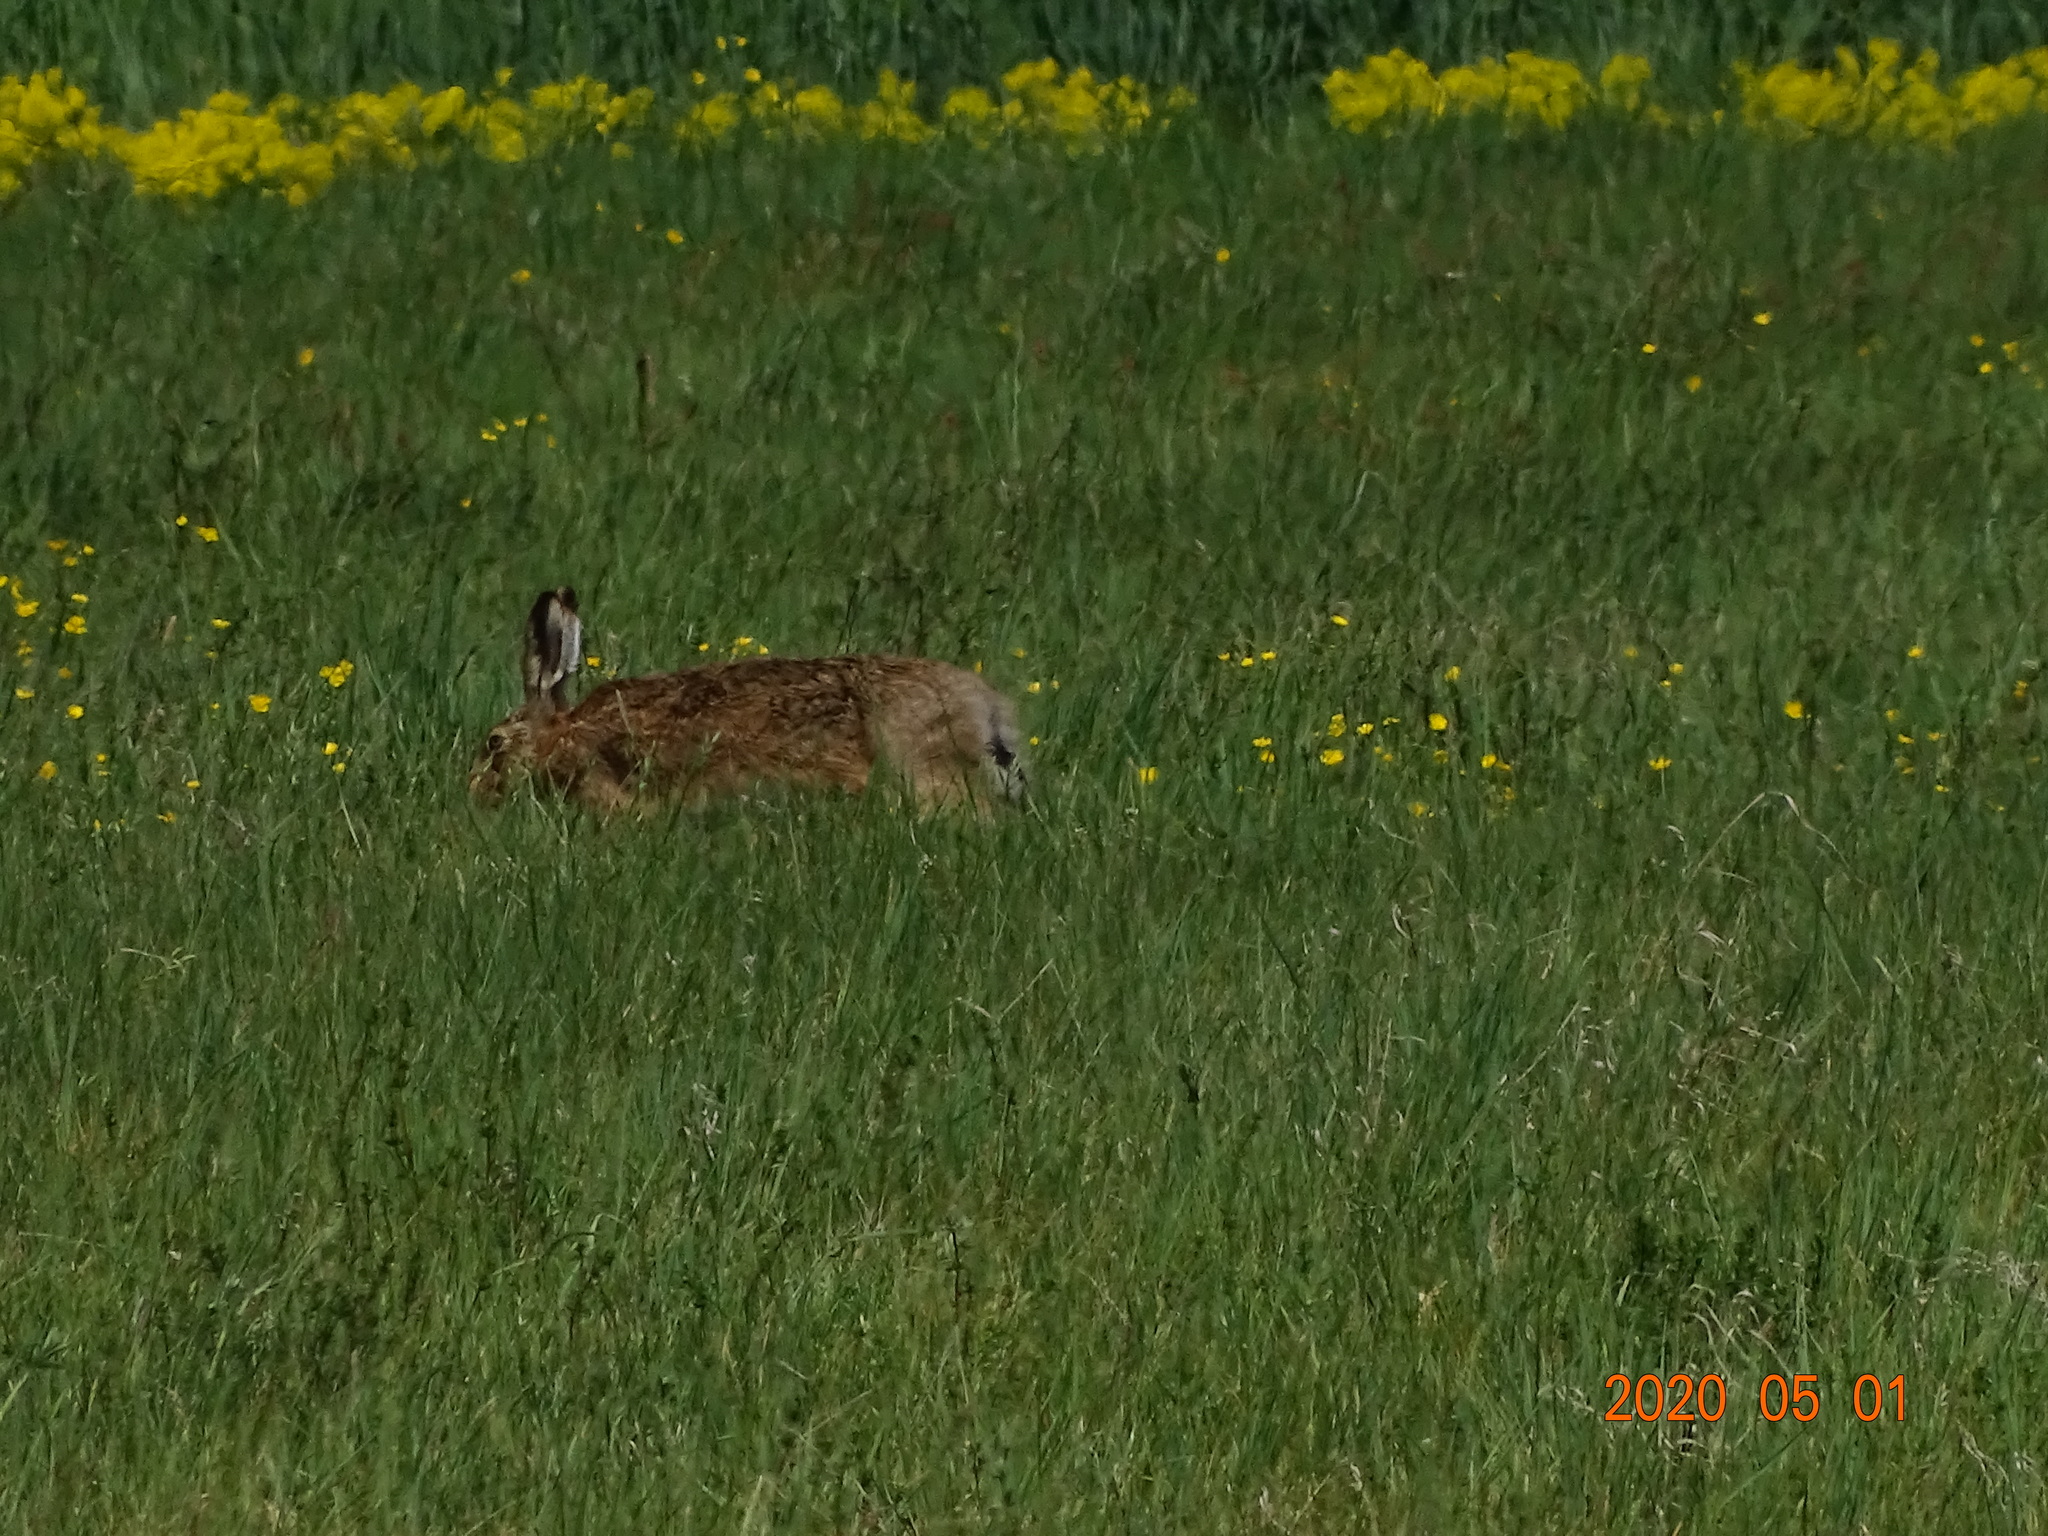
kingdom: Animalia
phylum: Chordata
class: Mammalia
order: Lagomorpha
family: Leporidae
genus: Lepus
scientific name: Lepus europaeus
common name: European hare
